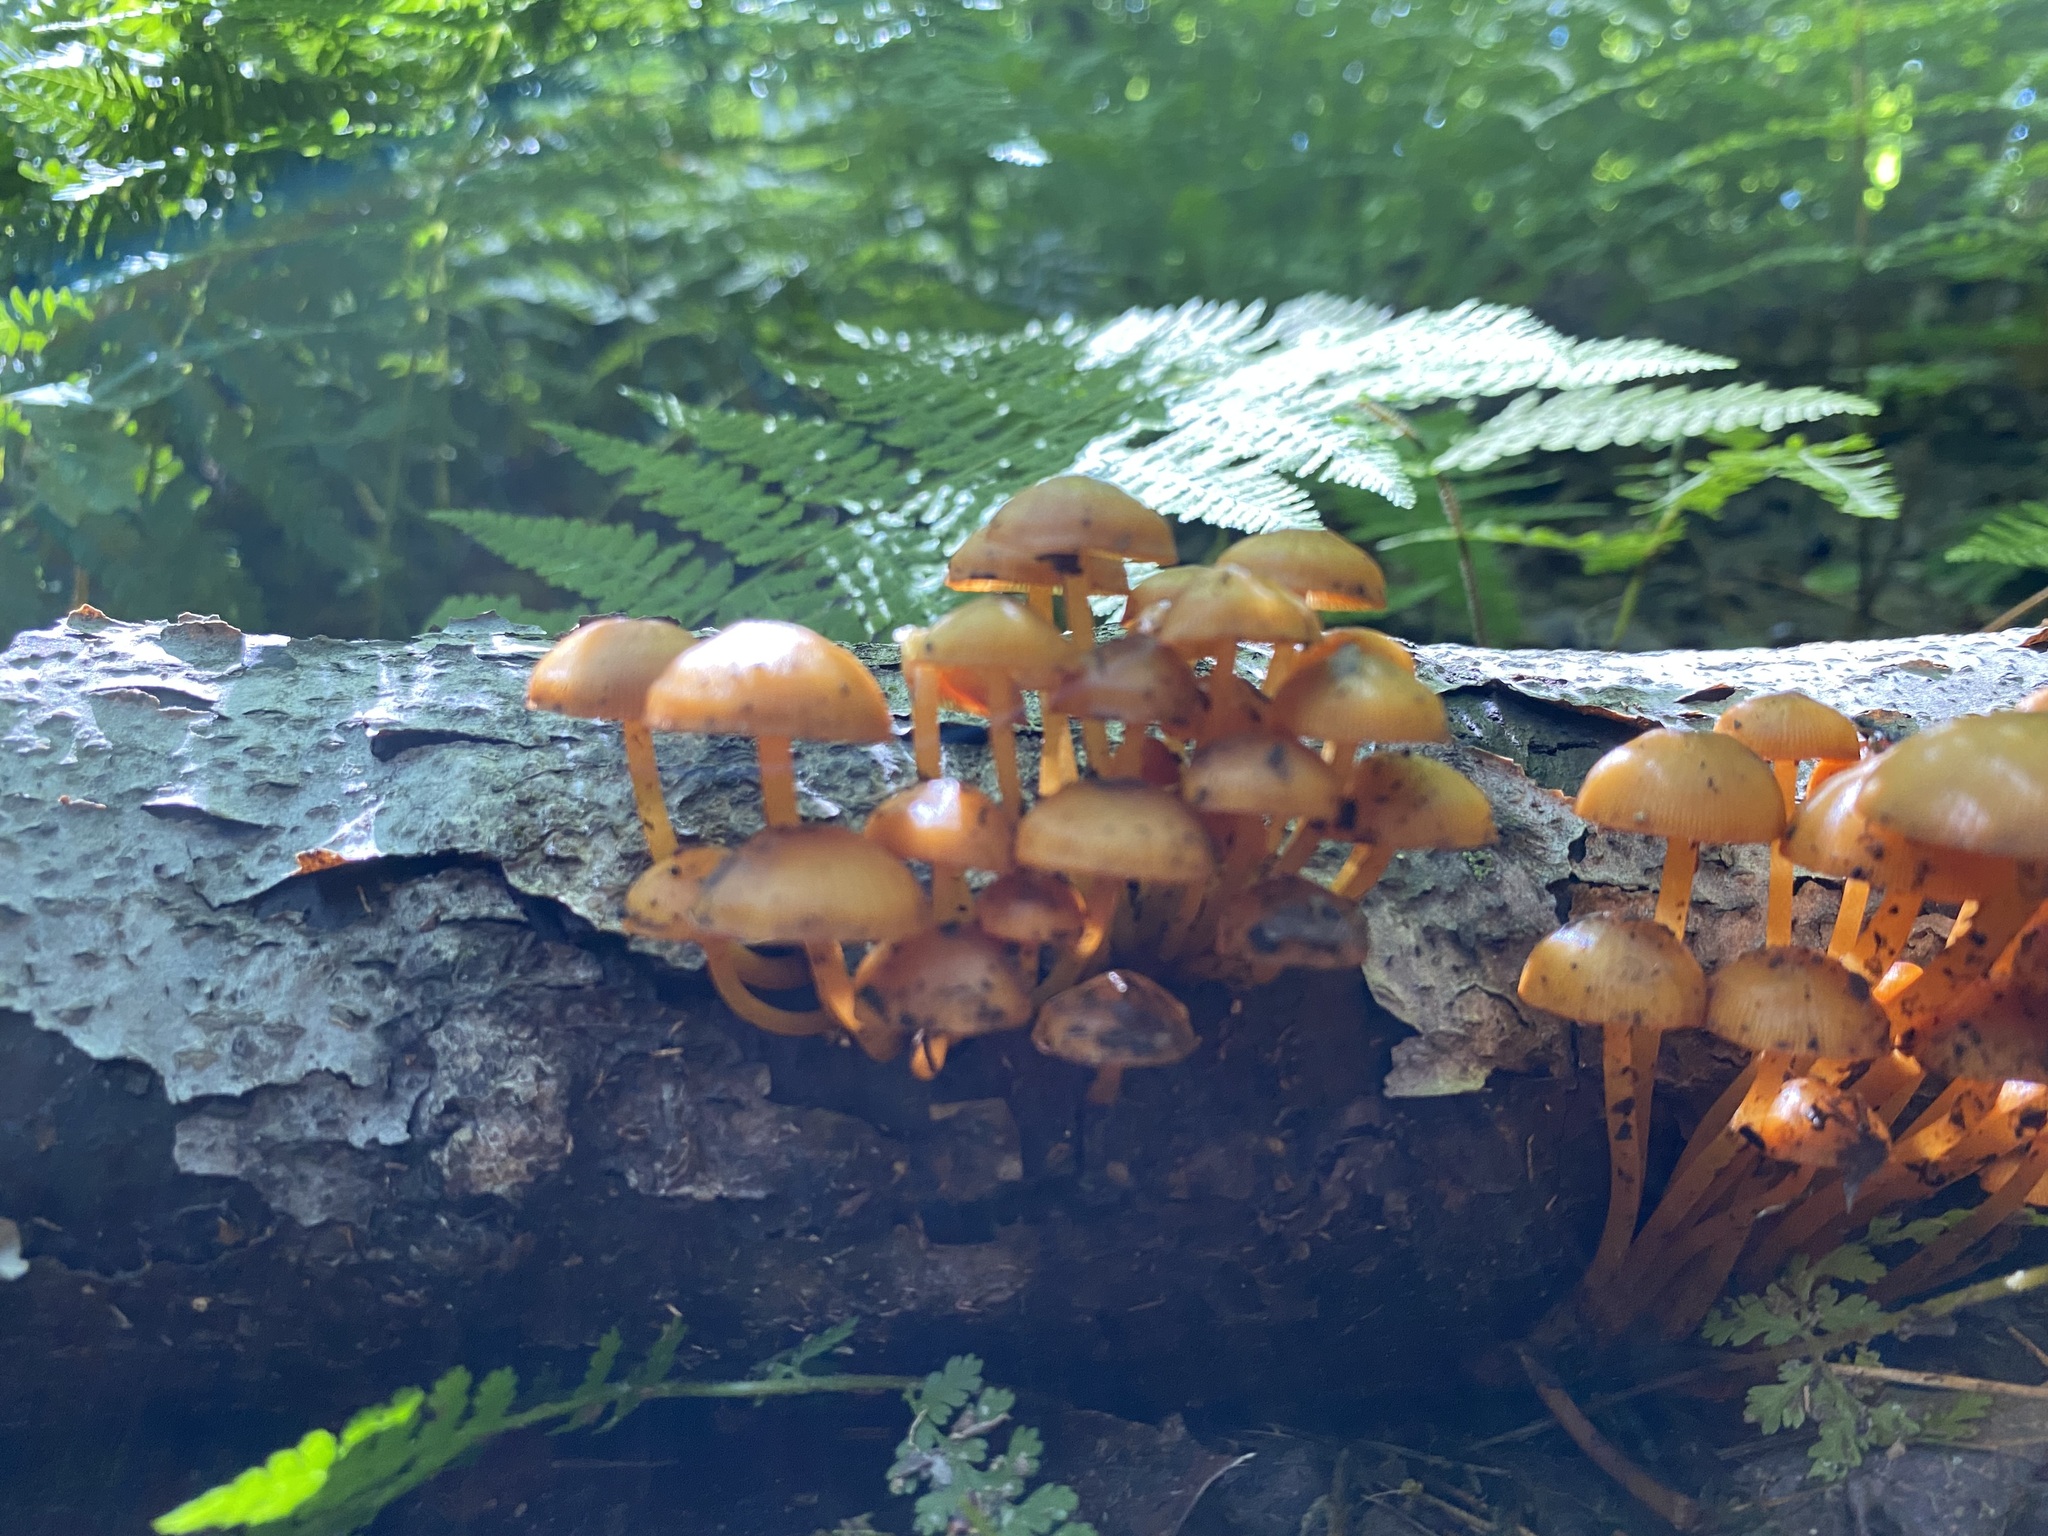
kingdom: Fungi
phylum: Basidiomycota
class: Agaricomycetes
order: Agaricales
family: Mycenaceae
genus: Mycena
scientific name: Mycena leaiana
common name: Orange mycena
